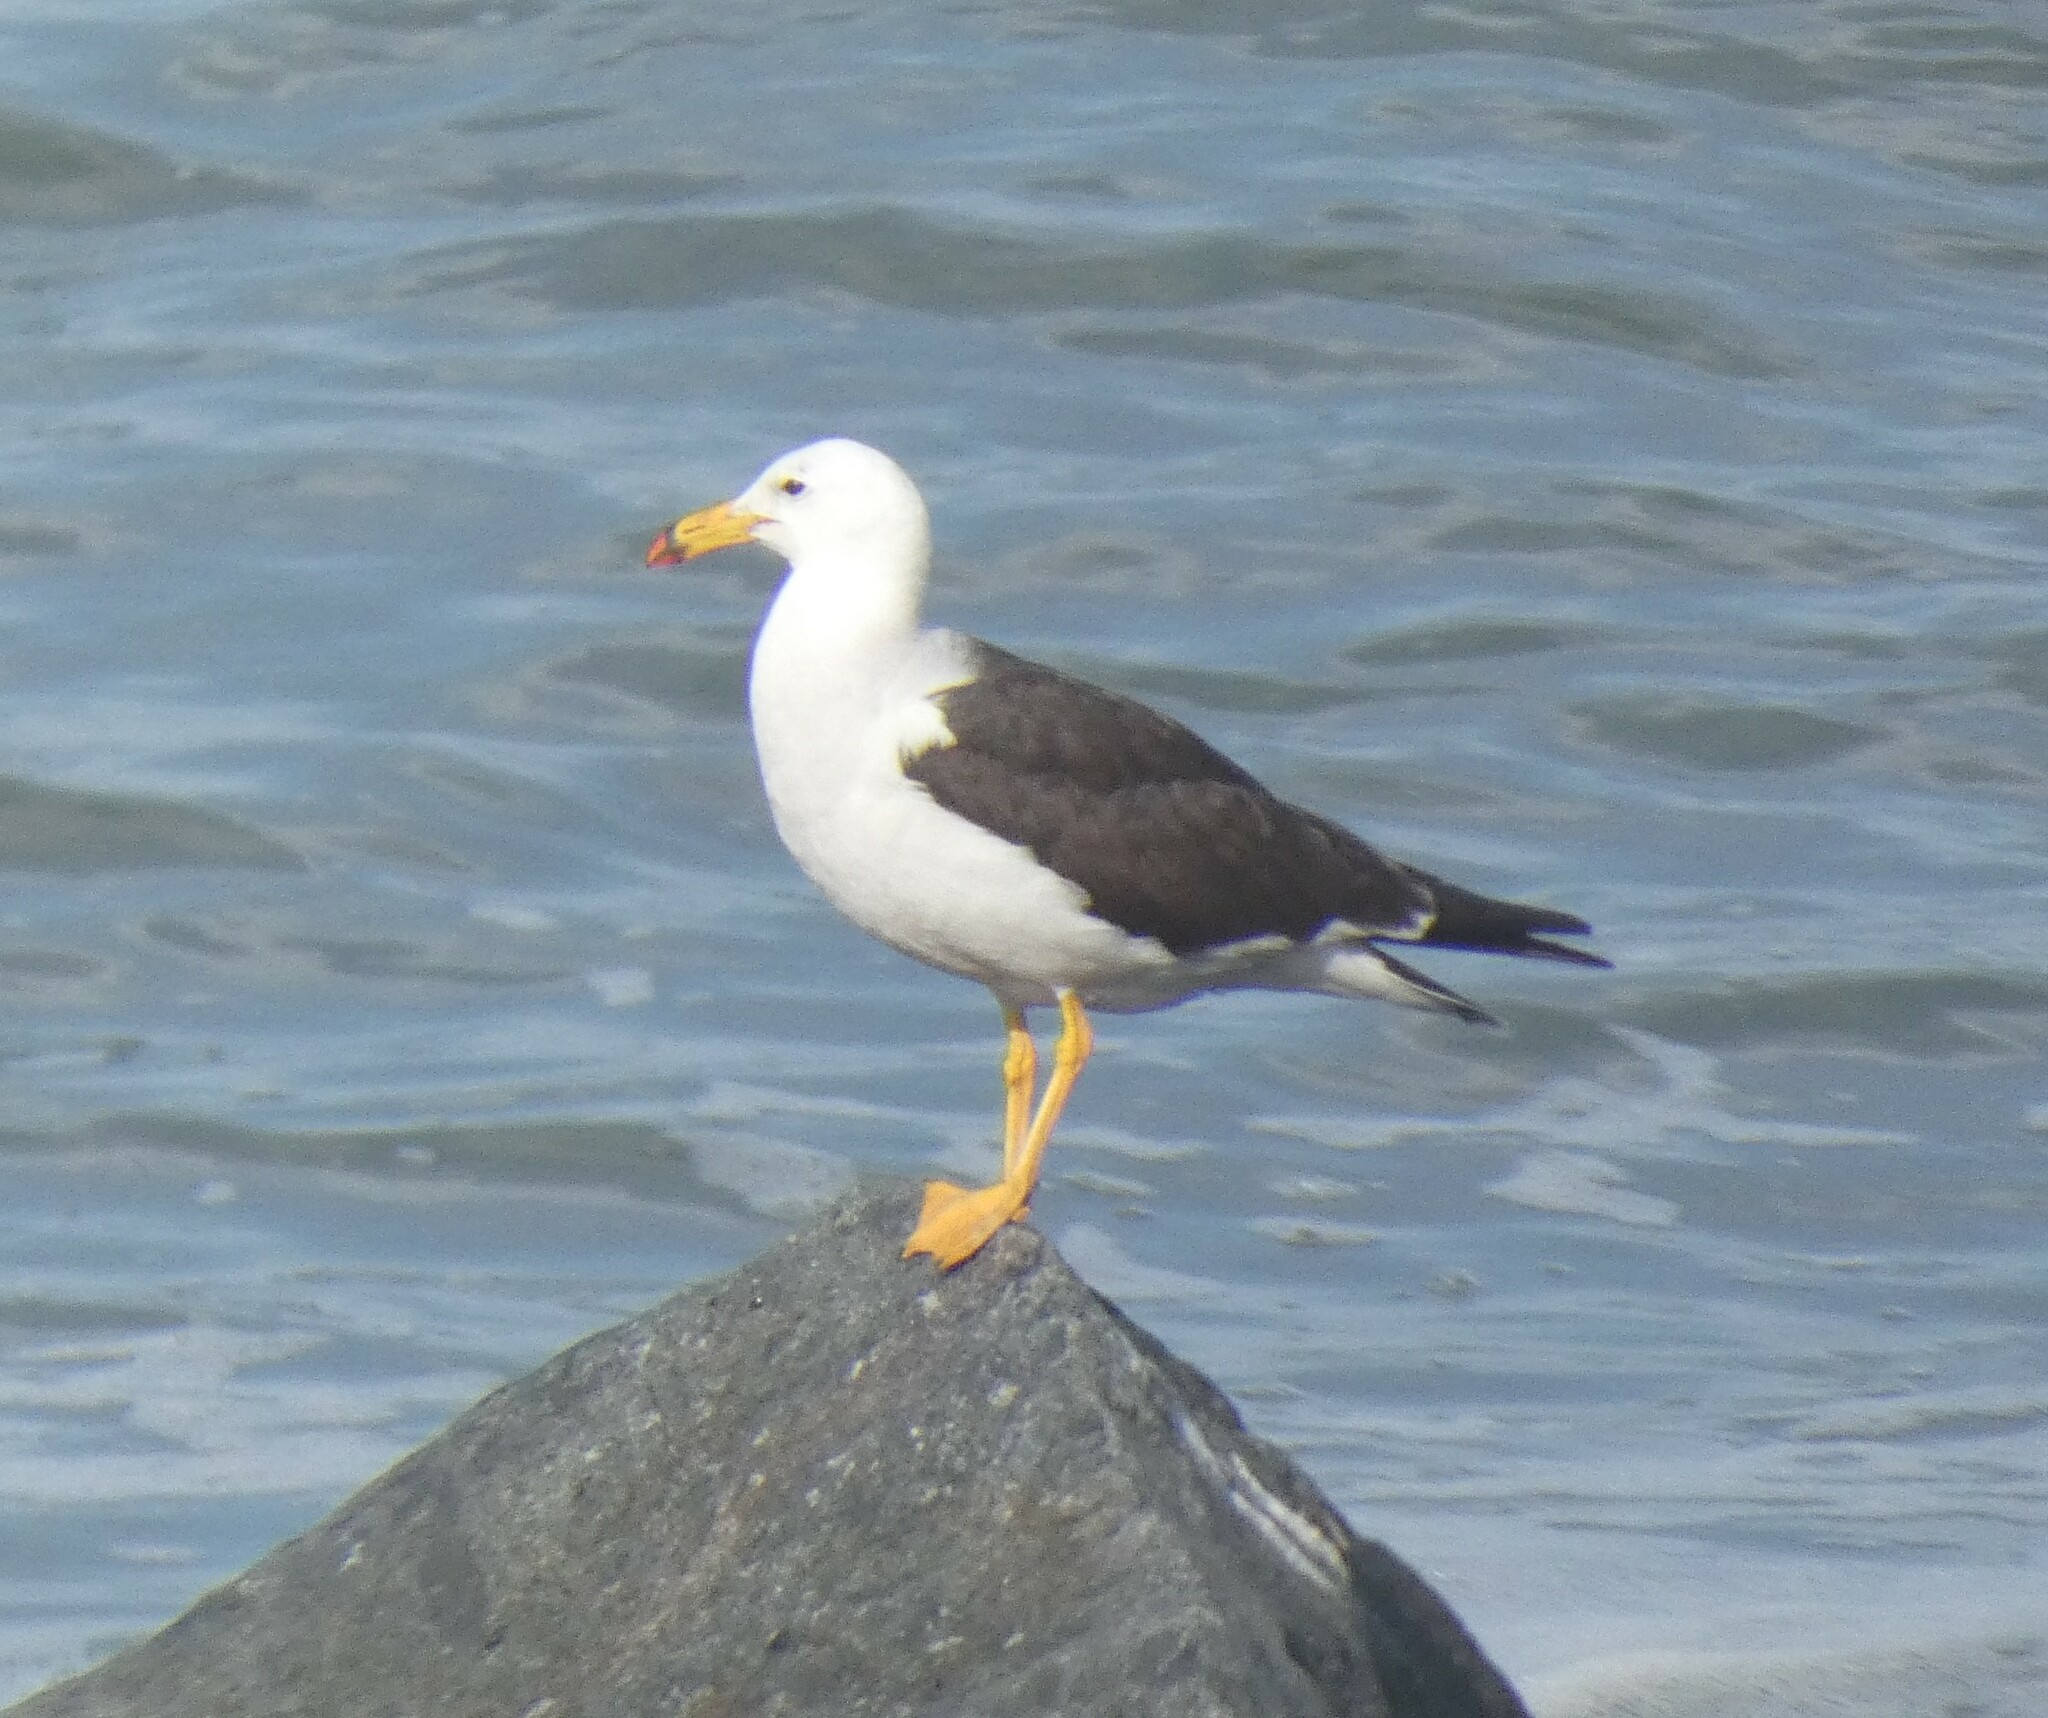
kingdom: Animalia
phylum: Chordata
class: Aves
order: Charadriiformes
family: Laridae
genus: Larus
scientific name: Larus belcheri
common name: Belcher's gull
